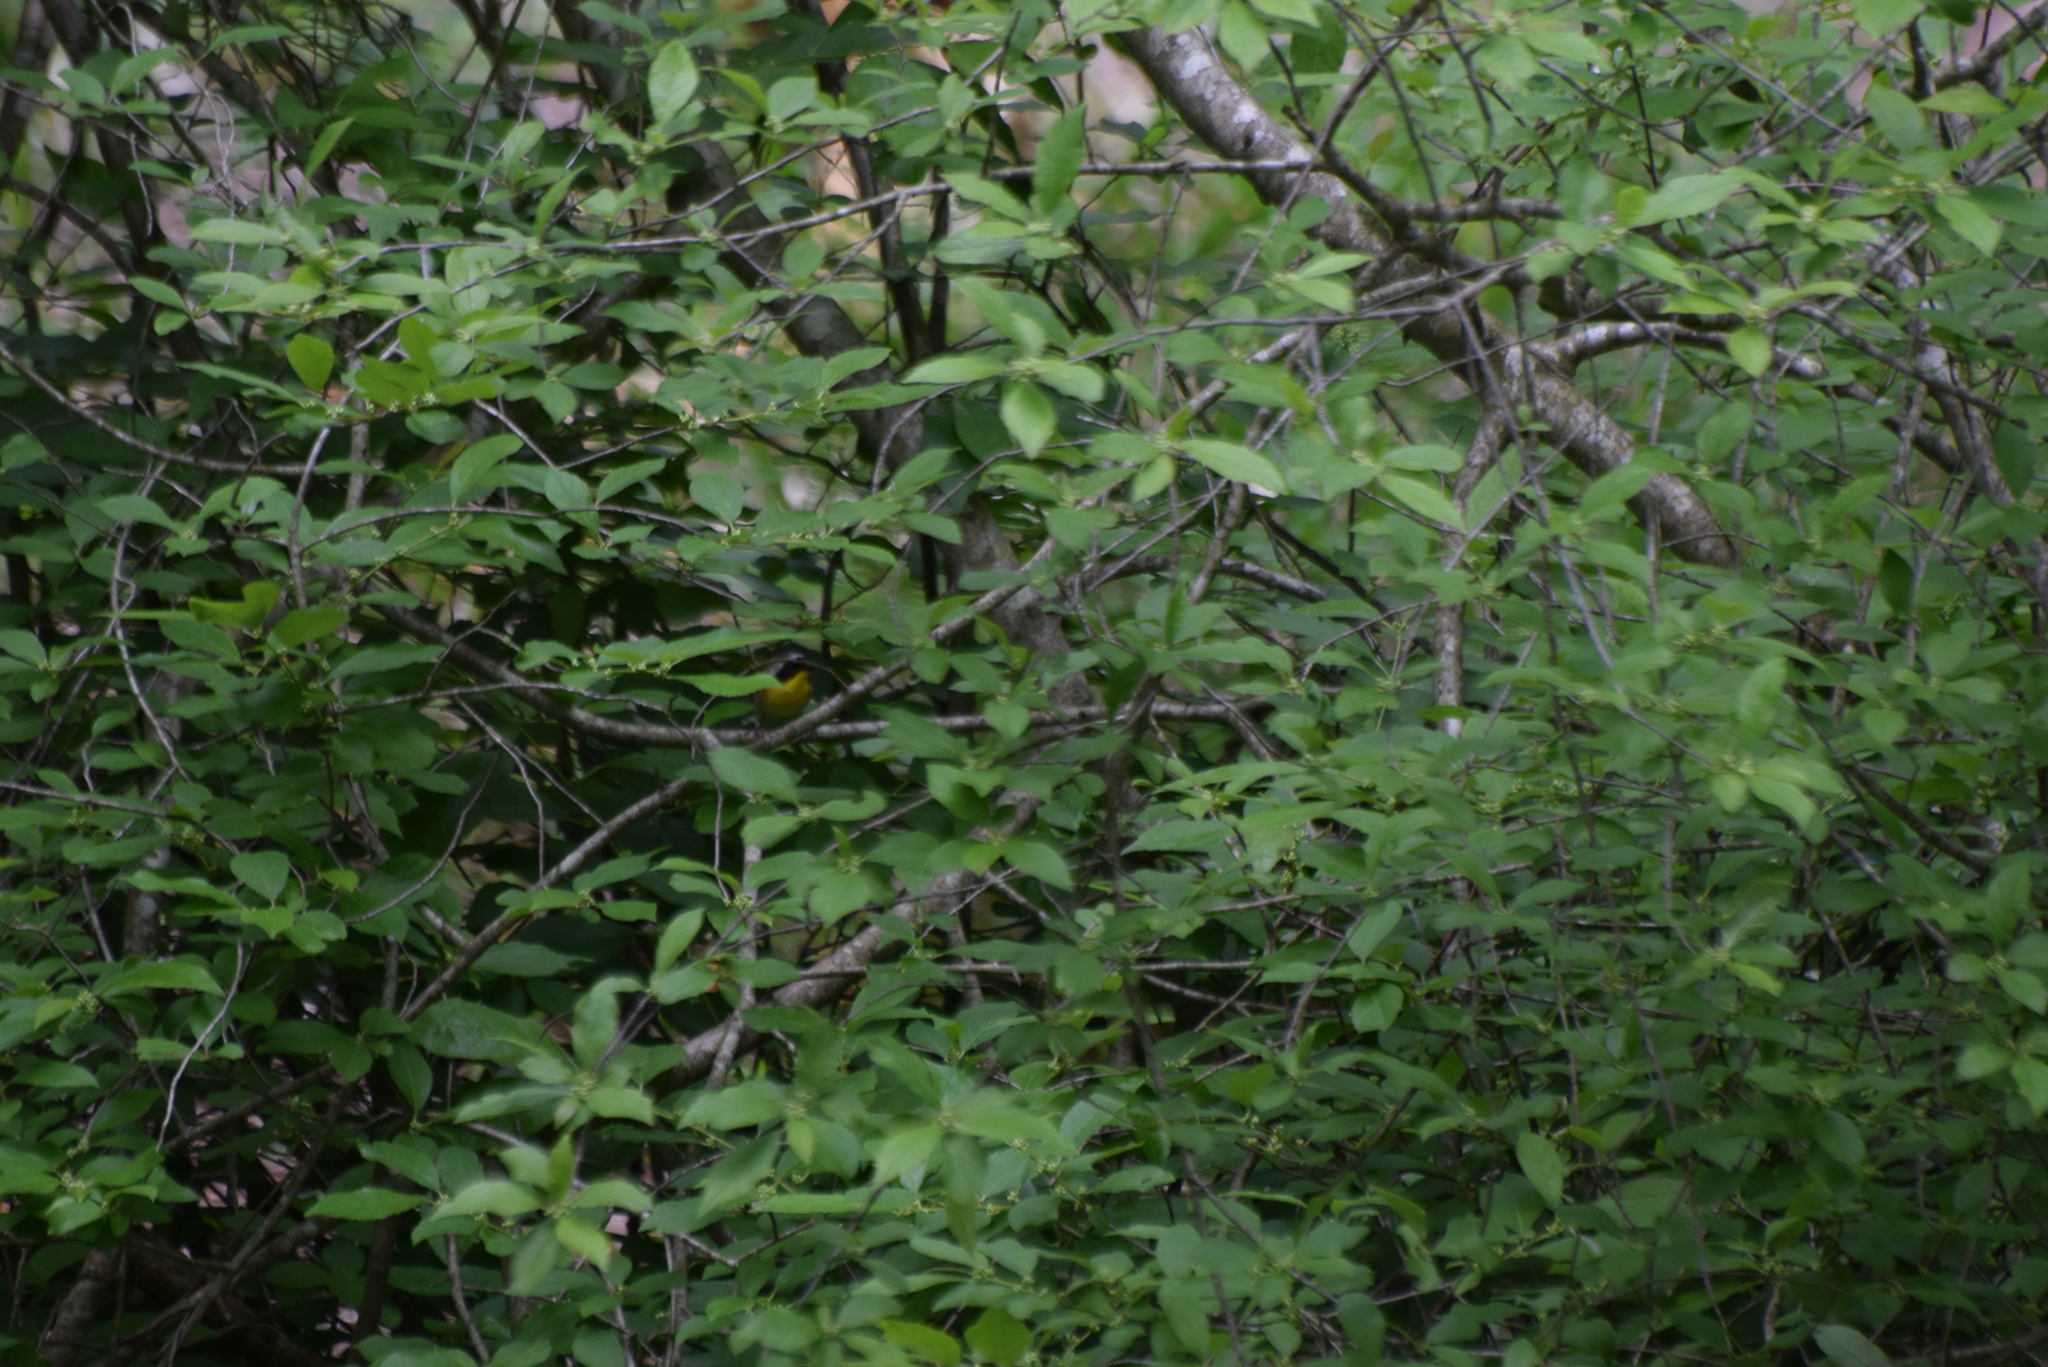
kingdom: Animalia
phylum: Chordata
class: Aves
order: Passeriformes
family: Parulidae
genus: Geothlypis
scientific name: Geothlypis trichas
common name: Common yellowthroat
